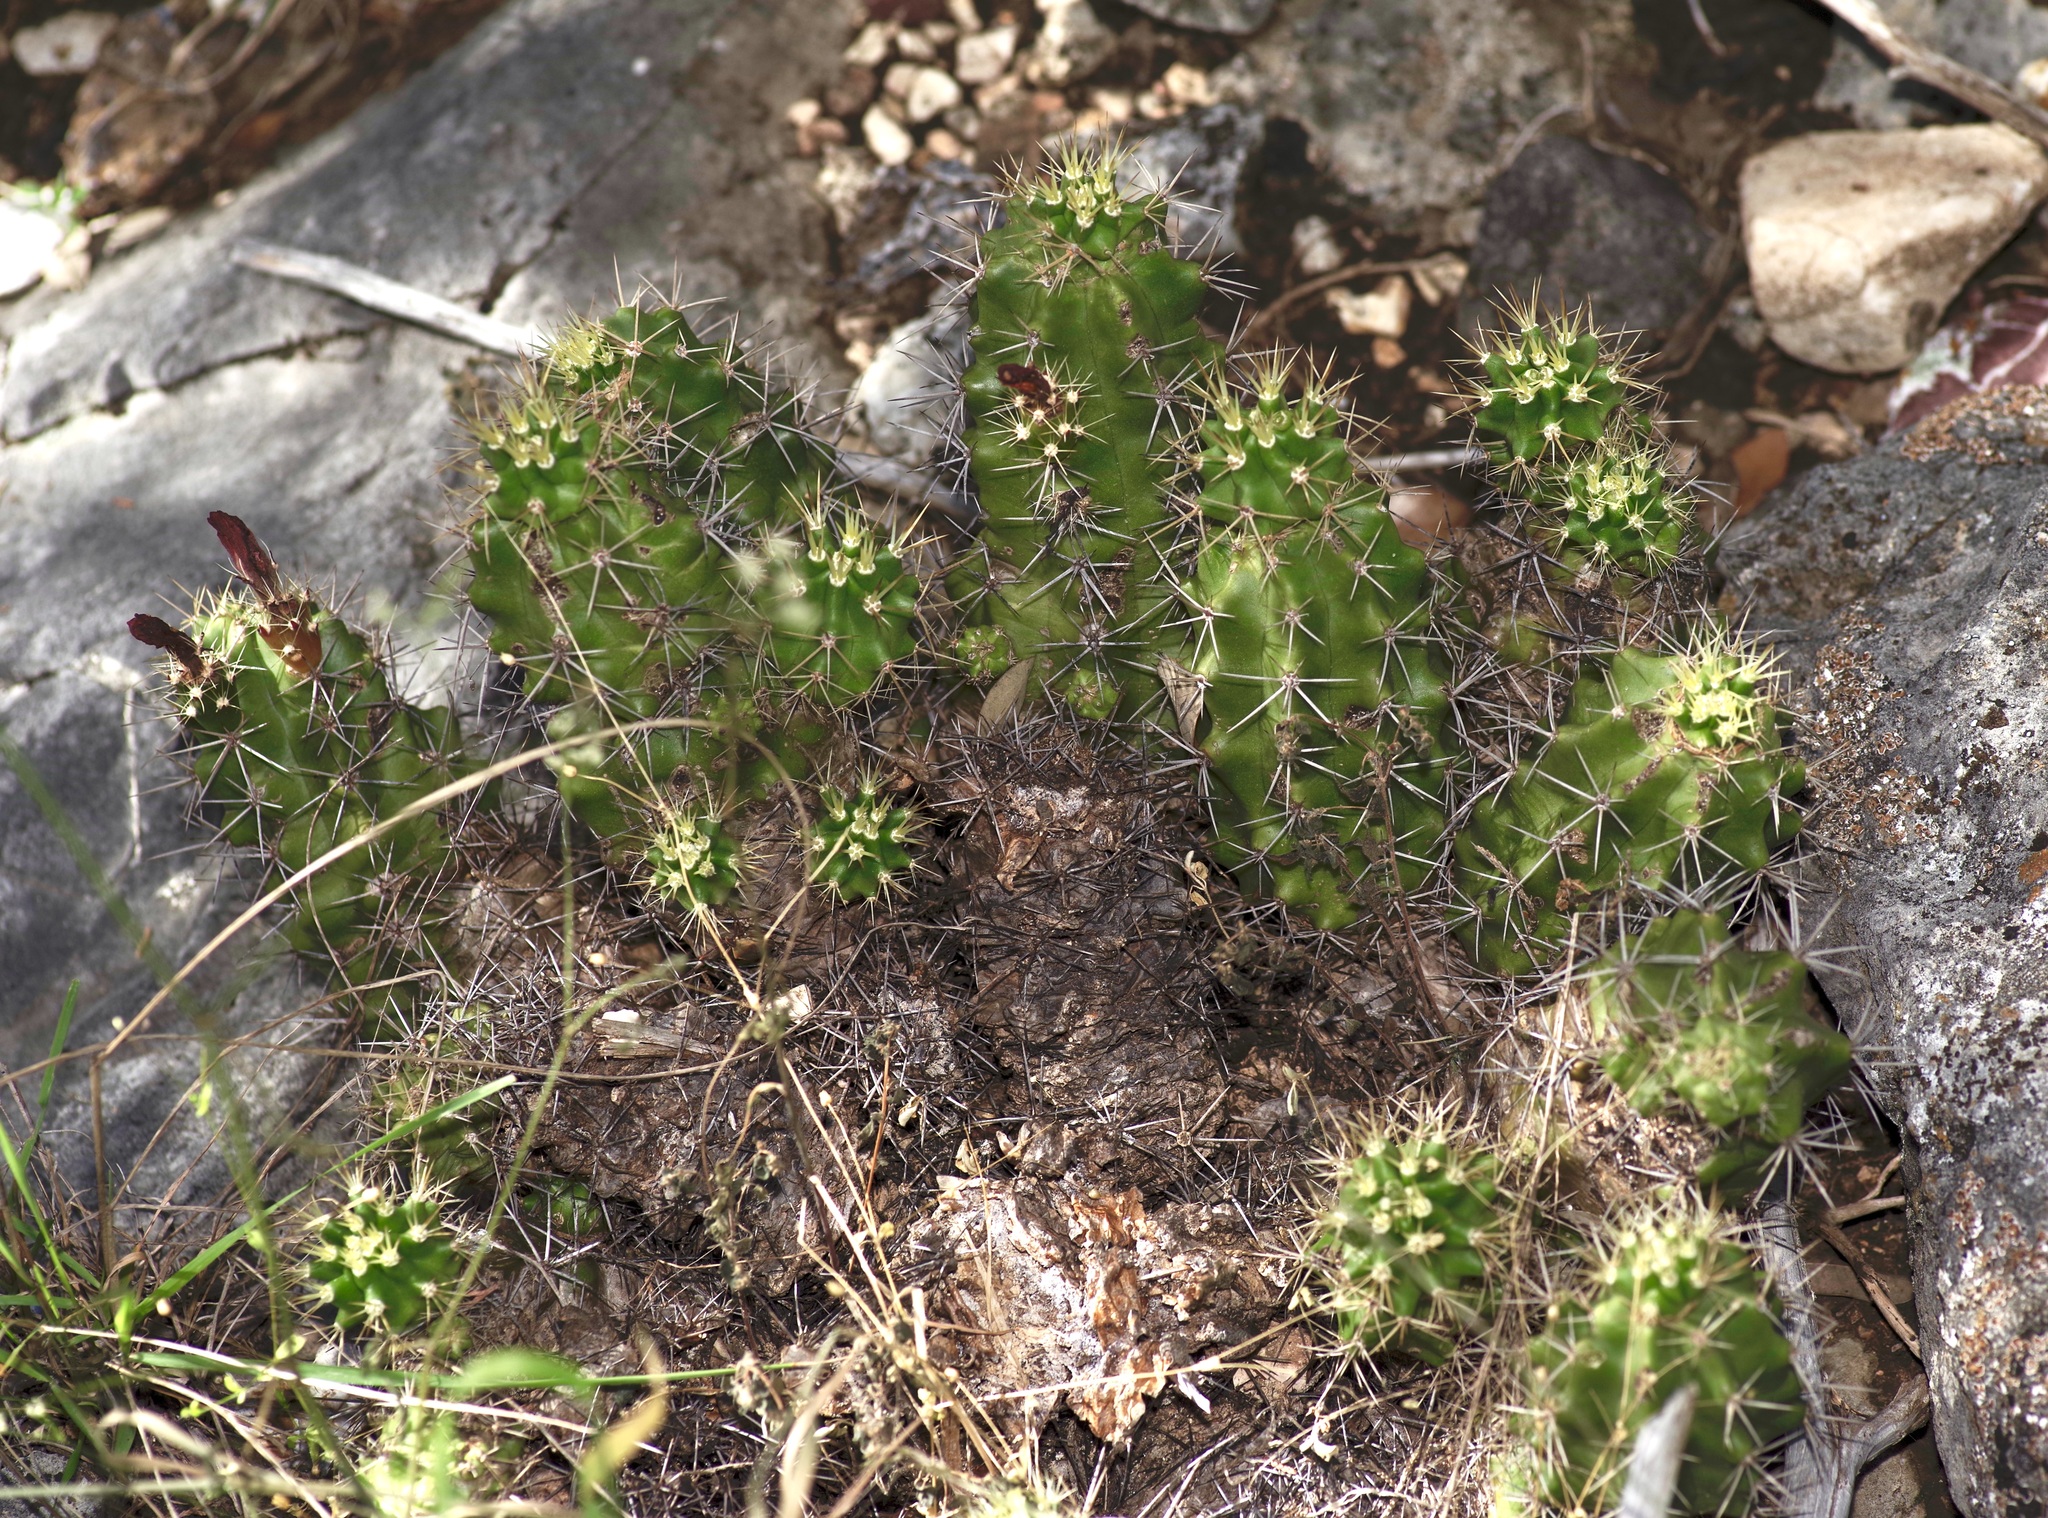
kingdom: Plantae
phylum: Tracheophyta
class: Magnoliopsida
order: Caryophyllales
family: Cactaceae
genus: Echinocereus
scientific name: Echinocereus coccineus
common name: Scarlet hedgehog cactus
